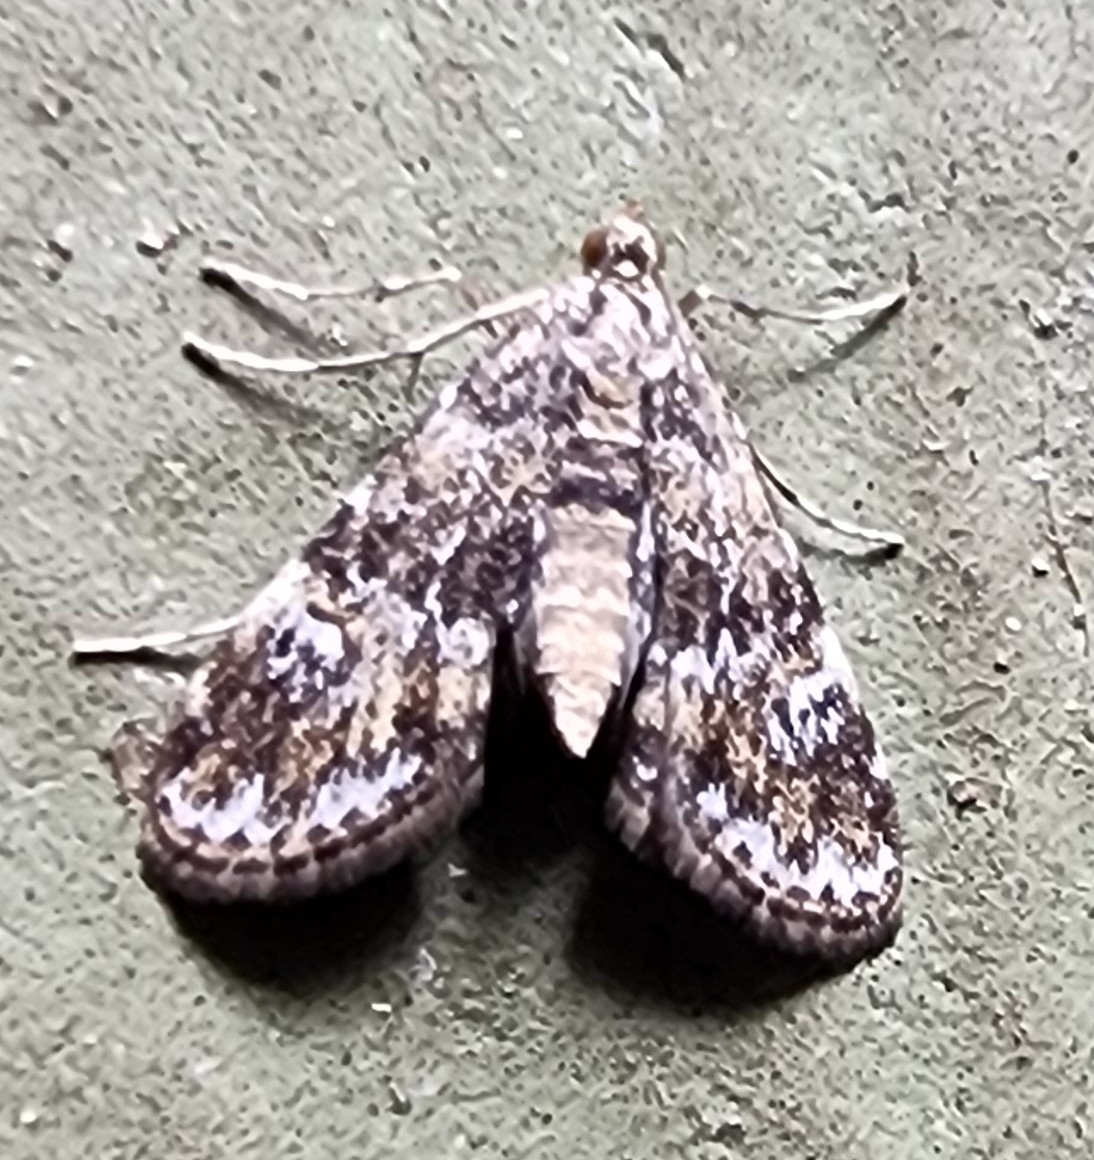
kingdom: Animalia
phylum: Arthropoda
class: Insecta
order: Lepidoptera
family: Crambidae
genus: Elophila
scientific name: Elophila obliteralis
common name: Waterlily leafcutter moth
